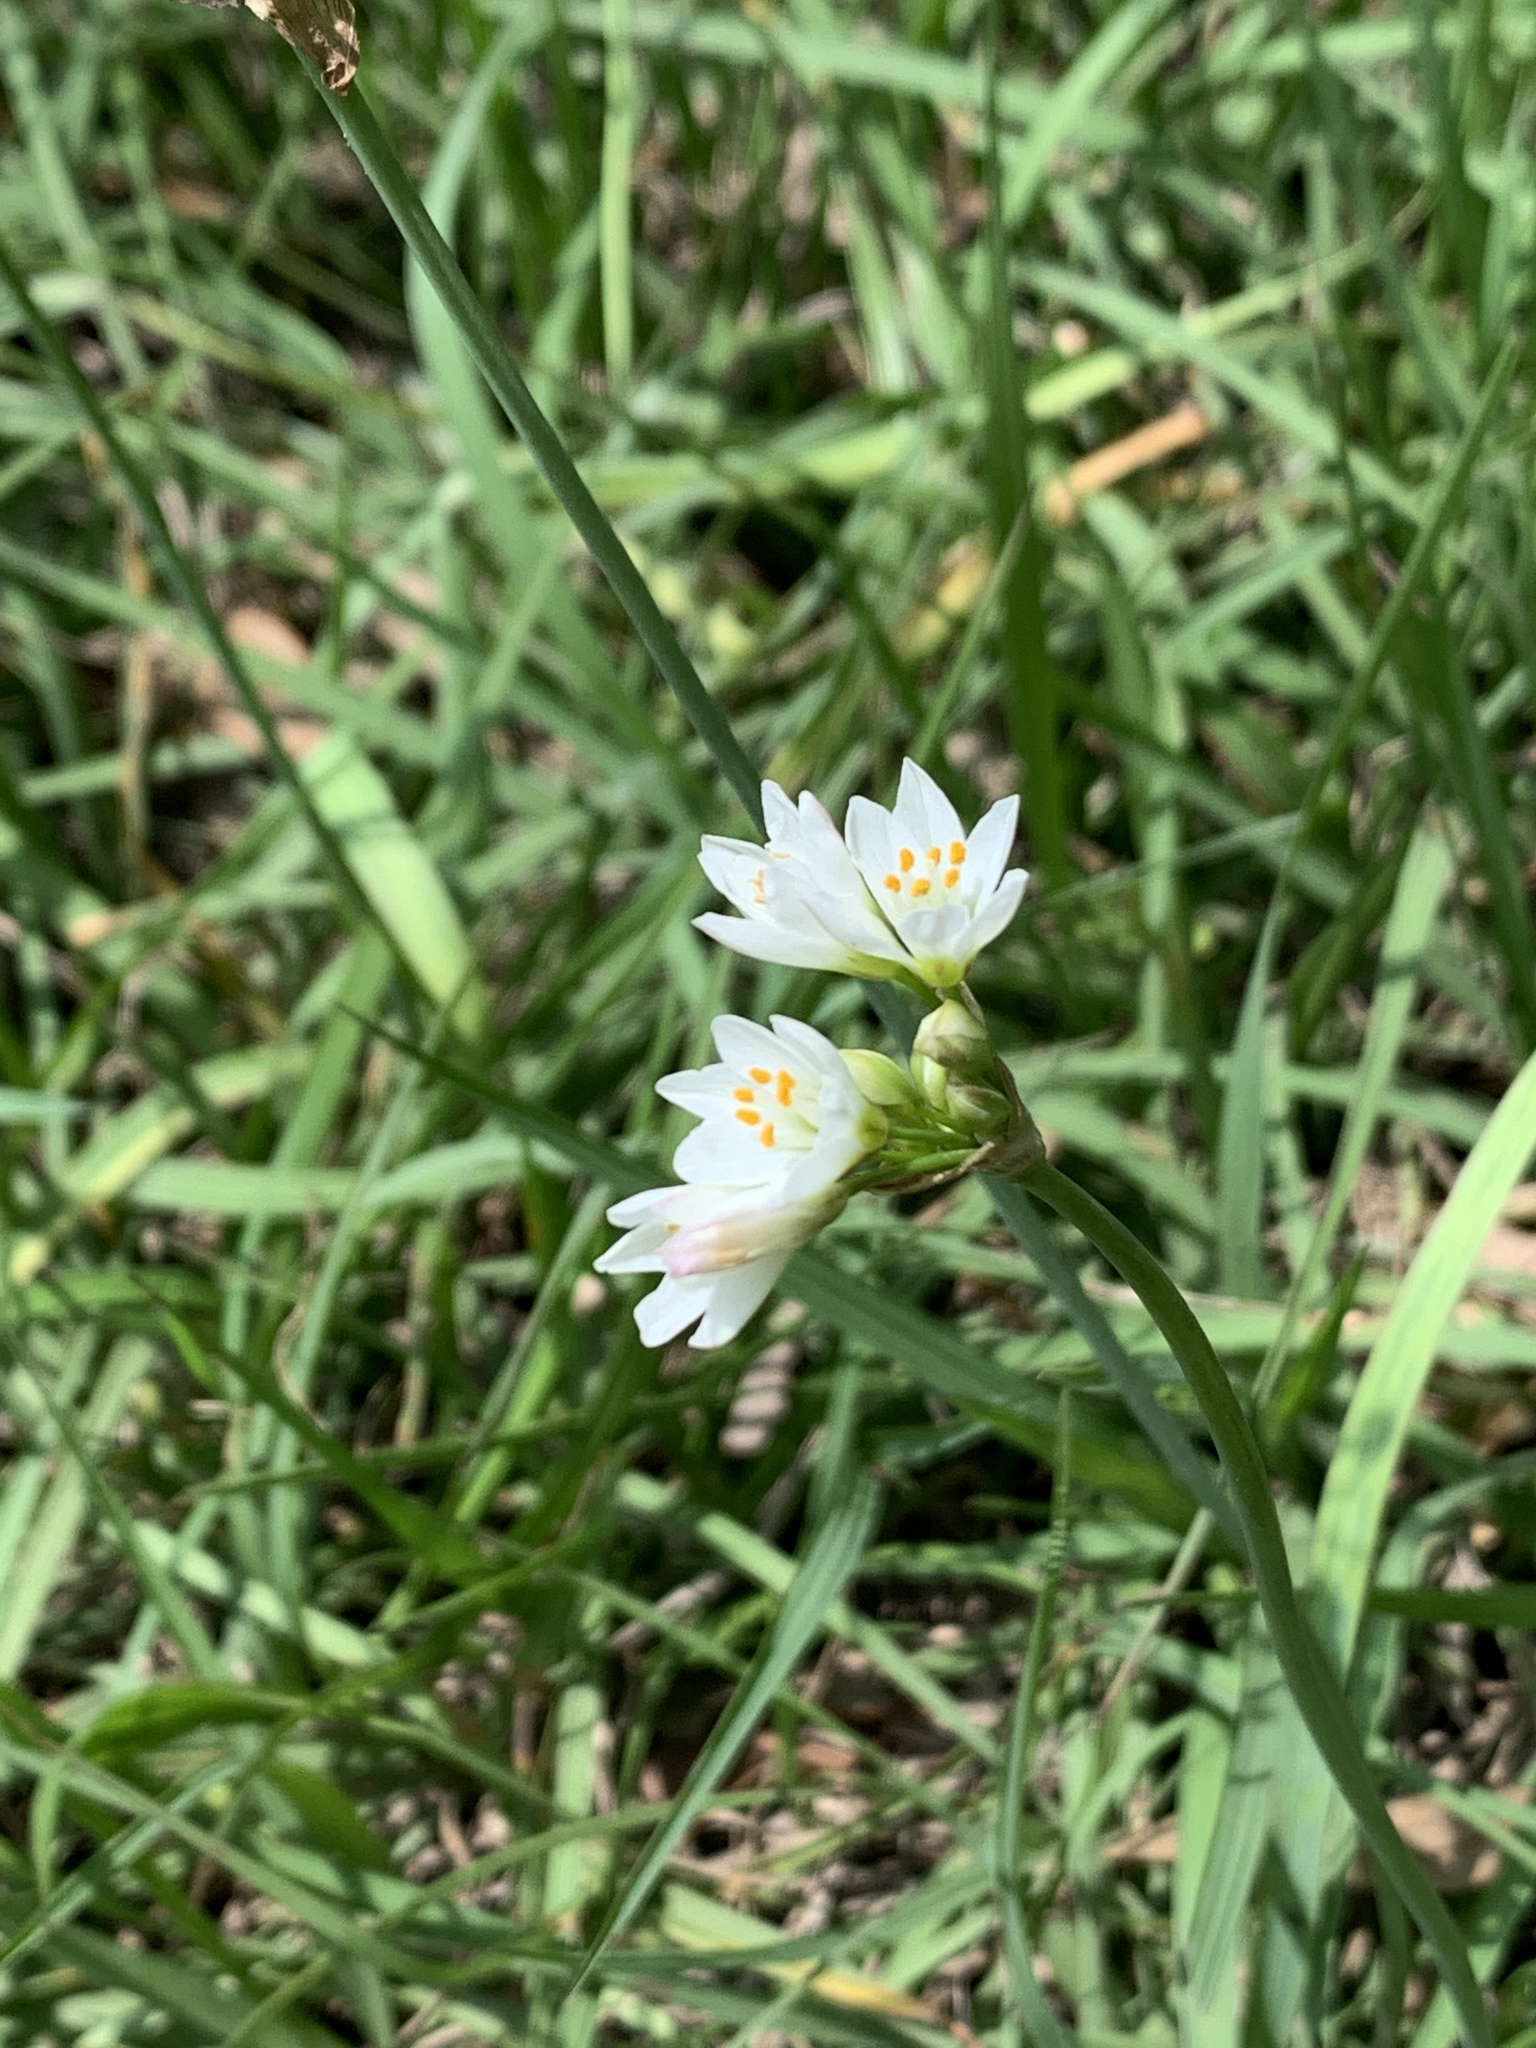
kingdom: Plantae
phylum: Tracheophyta
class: Liliopsida
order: Asparagales
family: Amaryllidaceae
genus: Nothoscordum
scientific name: Nothoscordum bivalve
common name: Crow-poison
